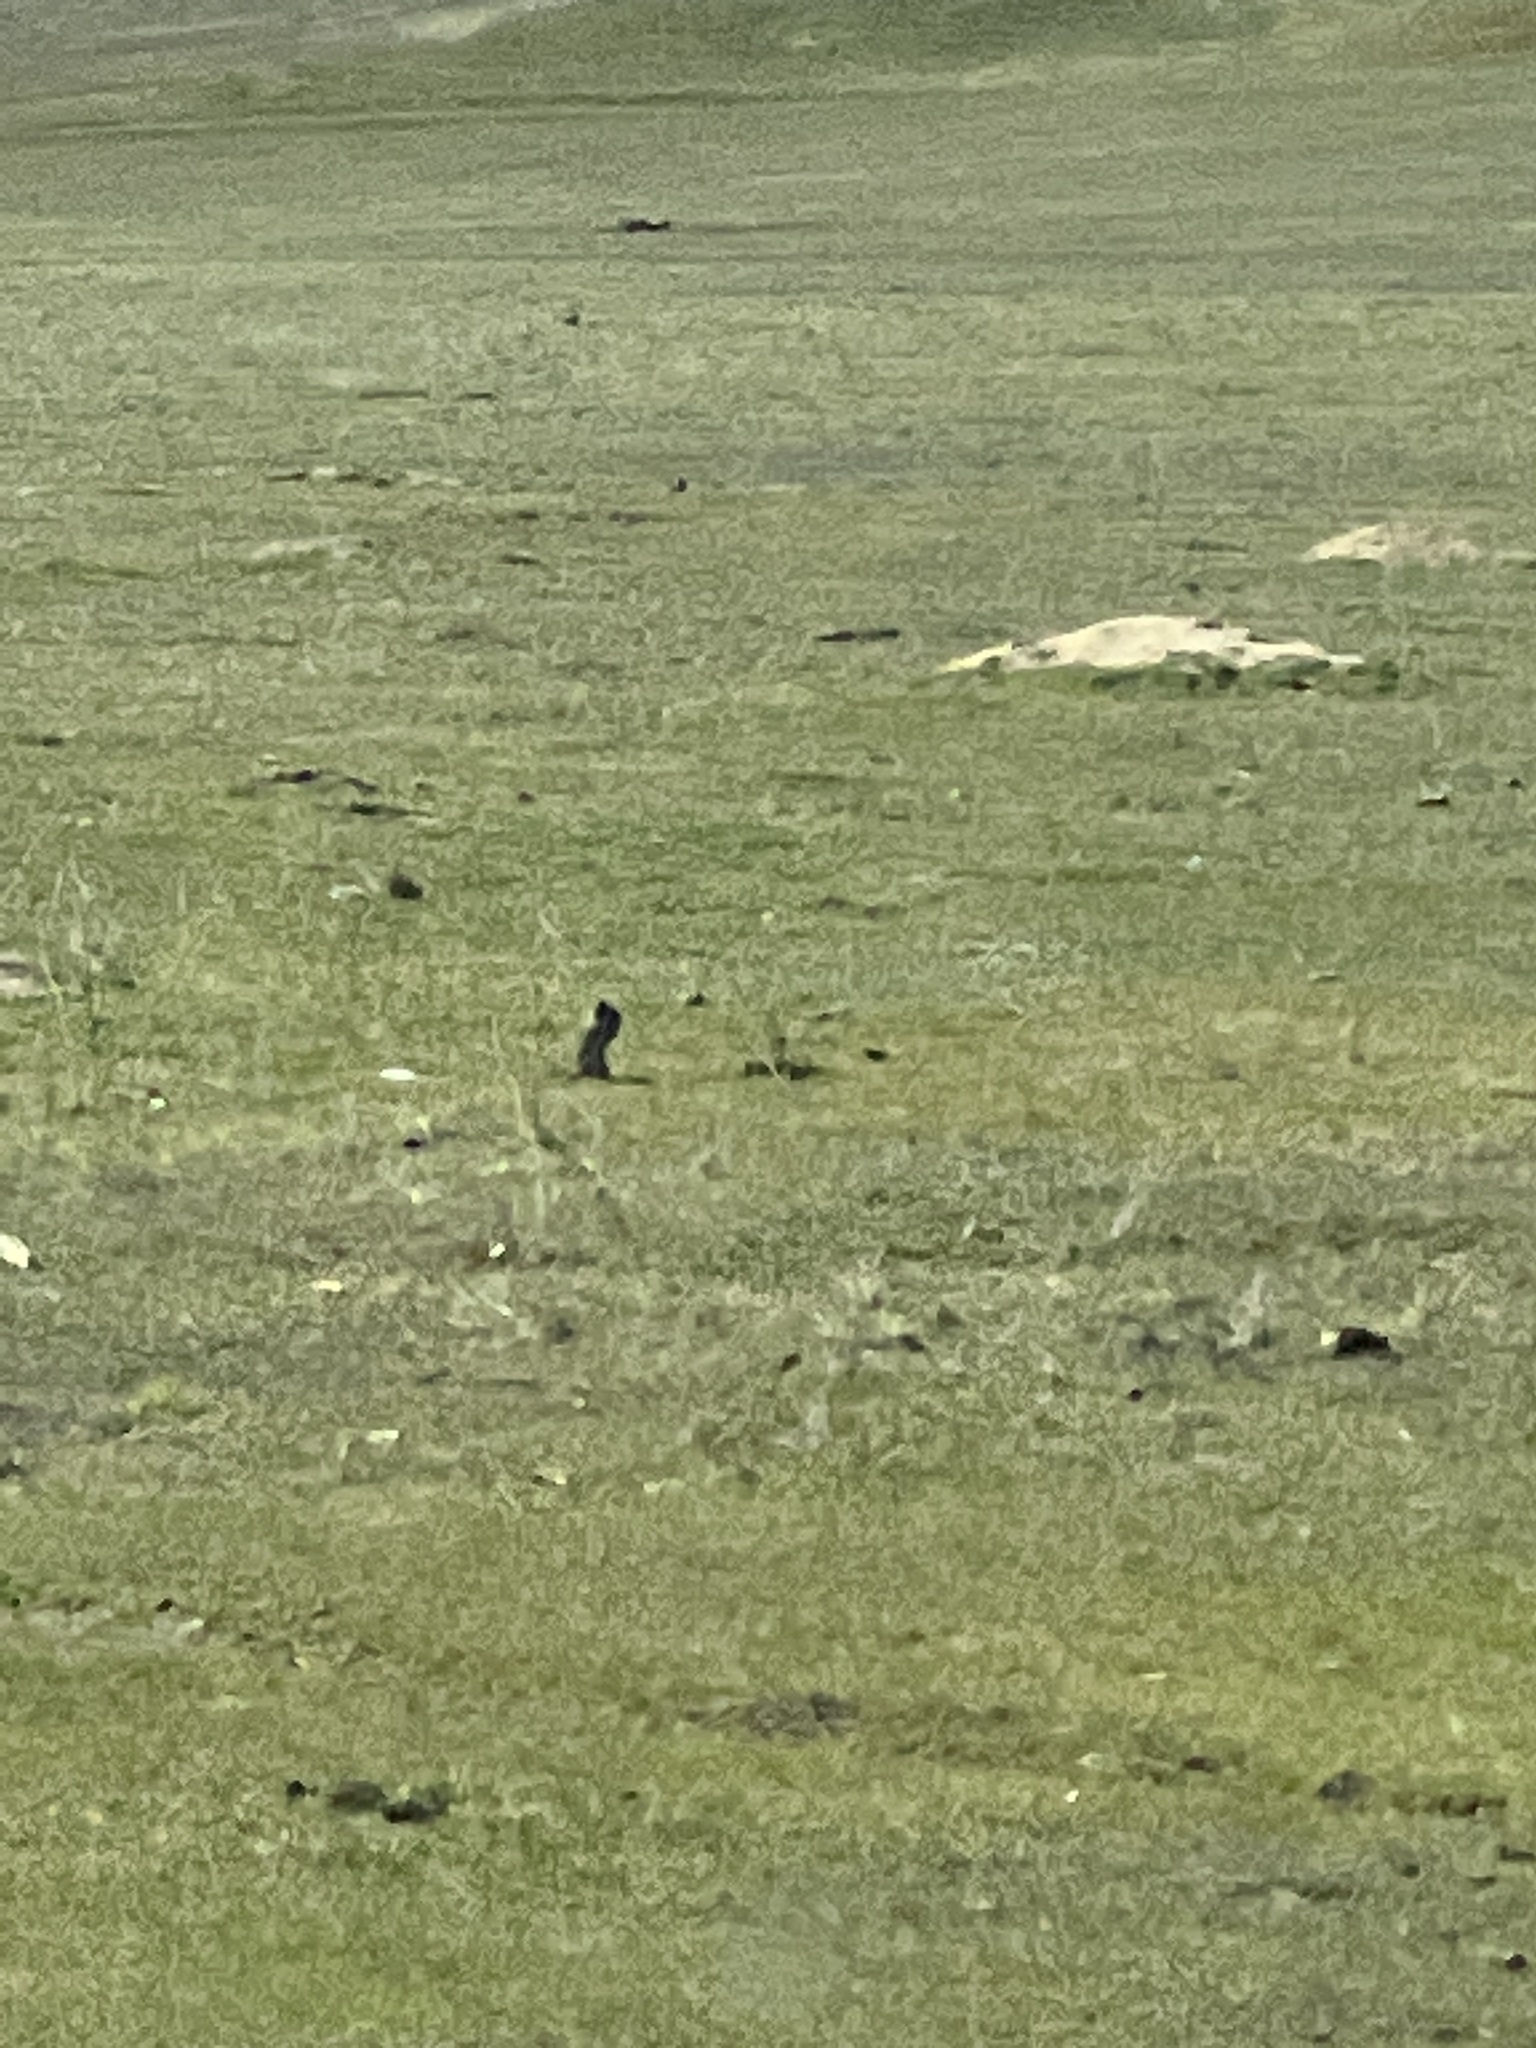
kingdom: Animalia
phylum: Chordata
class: Mammalia
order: Rodentia
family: Sciuridae
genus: Otospermophilus
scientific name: Otospermophilus beecheyi
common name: California ground squirrel
